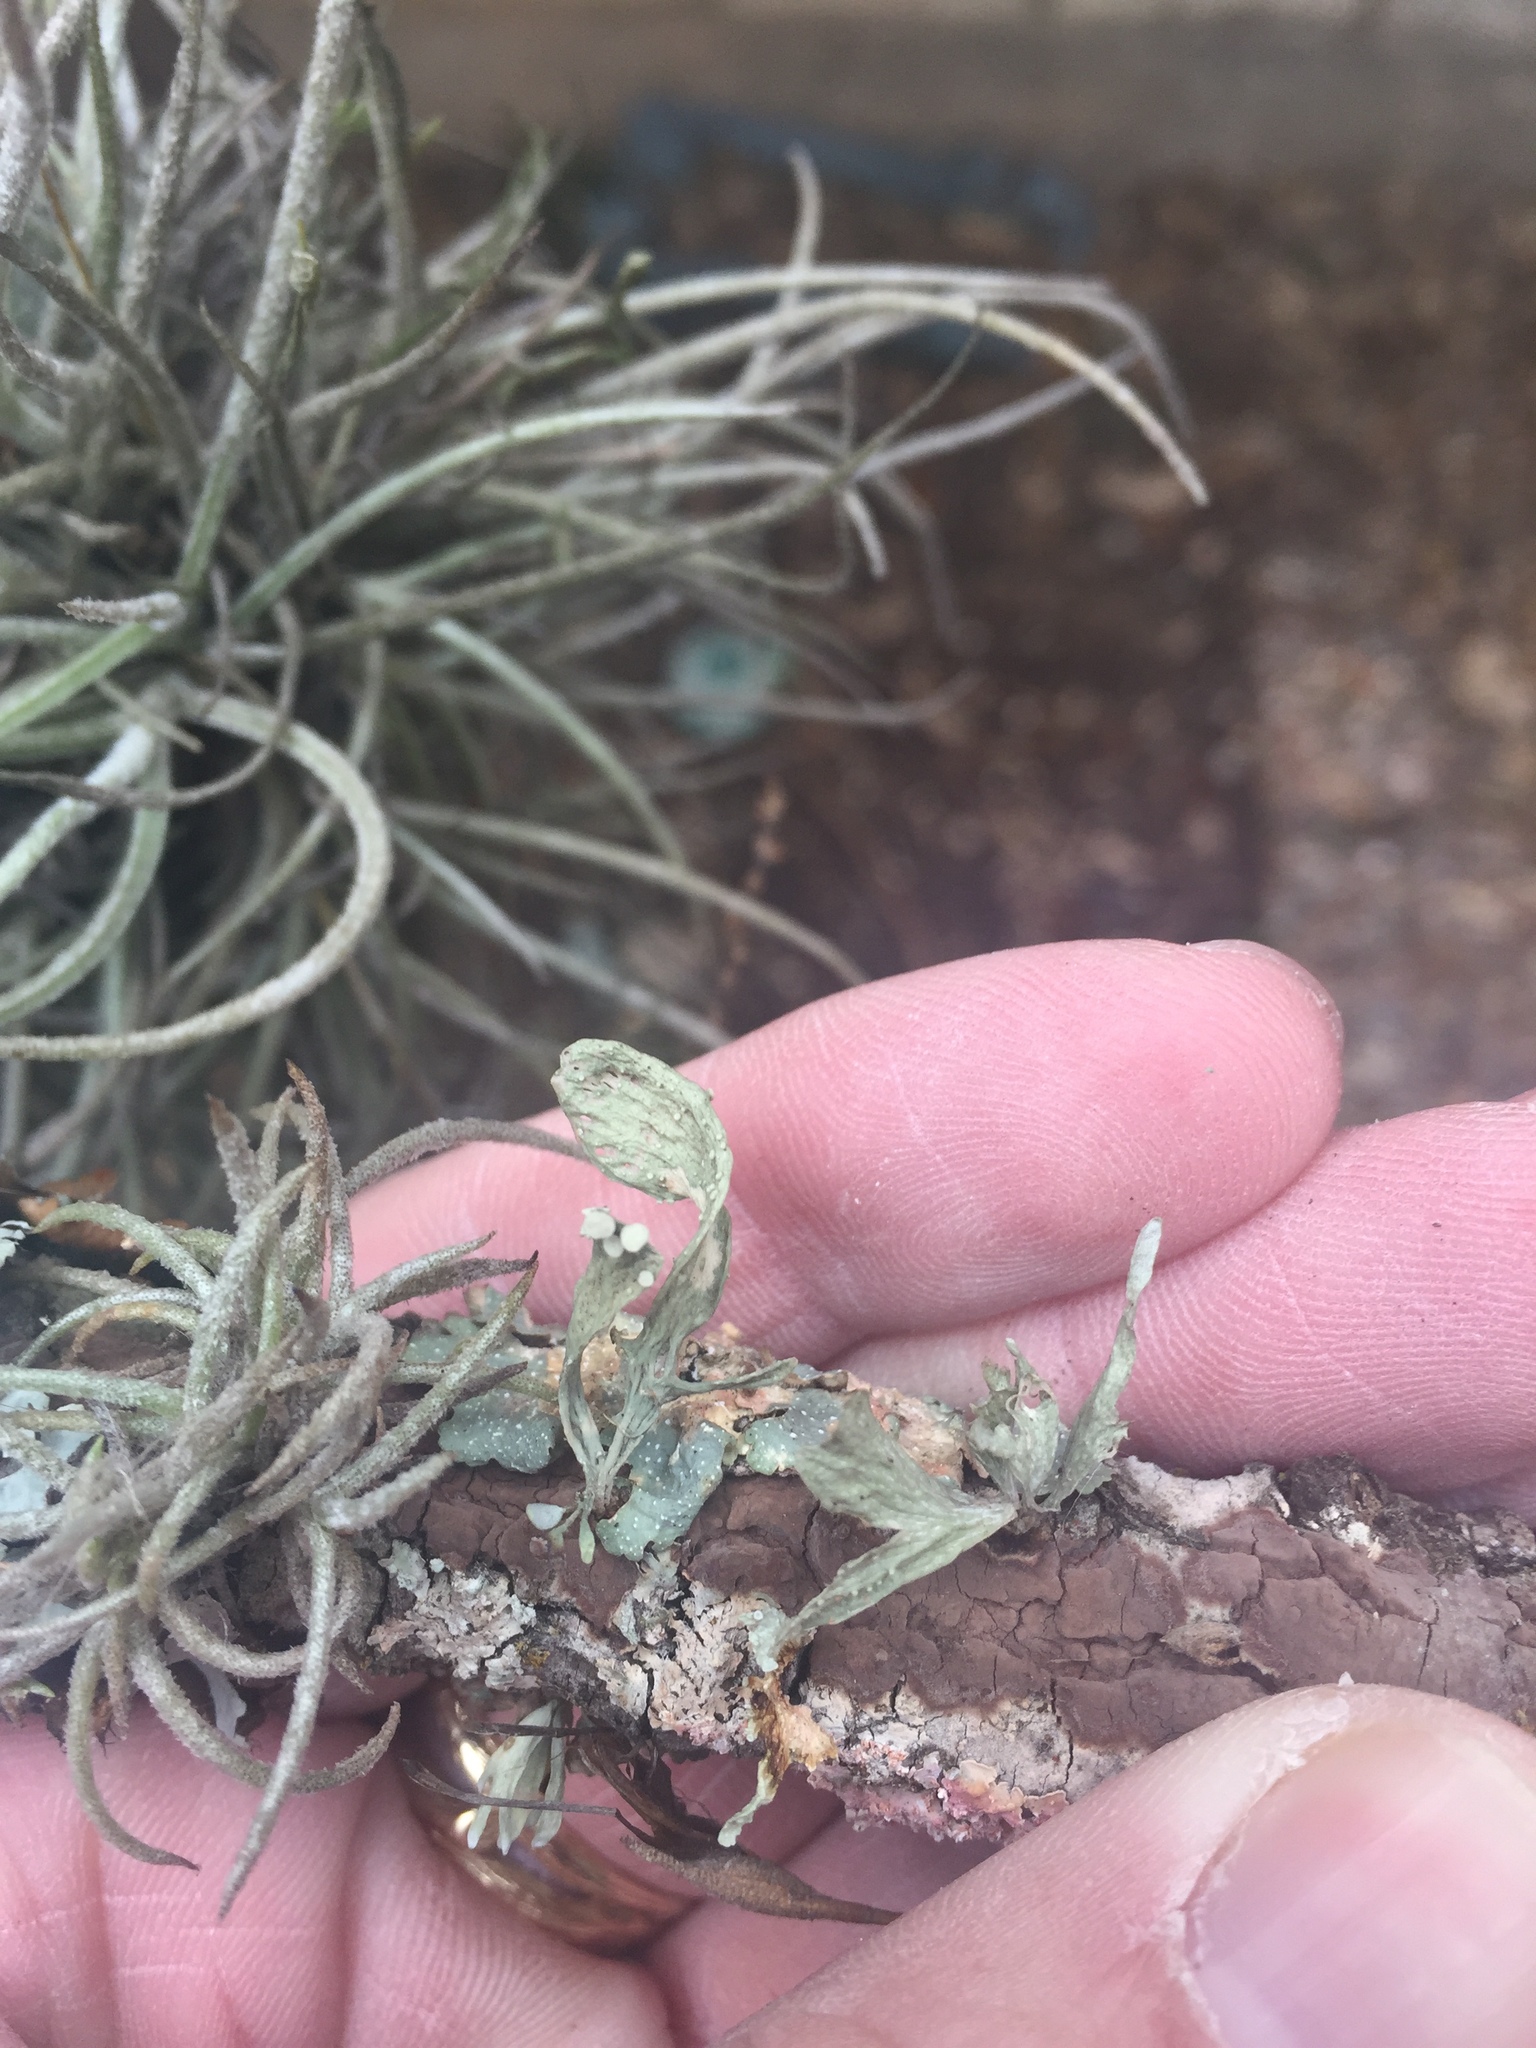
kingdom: Fungi
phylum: Ascomycota
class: Lecanoromycetes
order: Lecanorales
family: Ramalinaceae
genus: Ramalina
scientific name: Ramalina celastri
